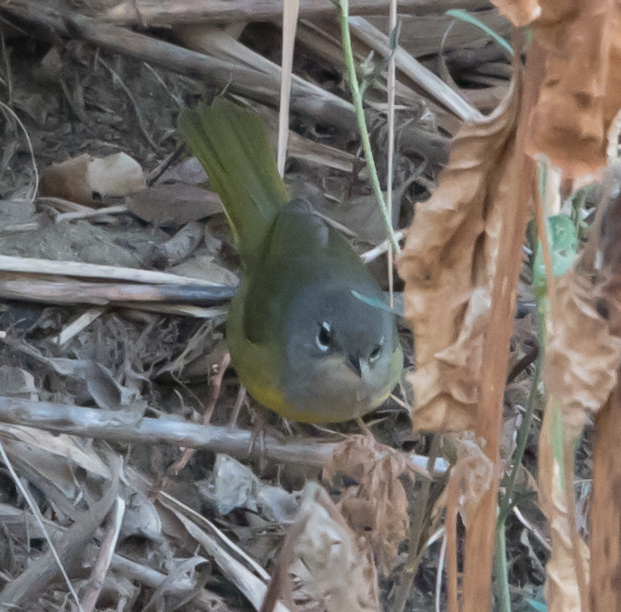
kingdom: Animalia
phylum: Chordata
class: Aves
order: Passeriformes
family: Parulidae
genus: Geothlypis
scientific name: Geothlypis tolmiei
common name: Macgillivray's warbler
